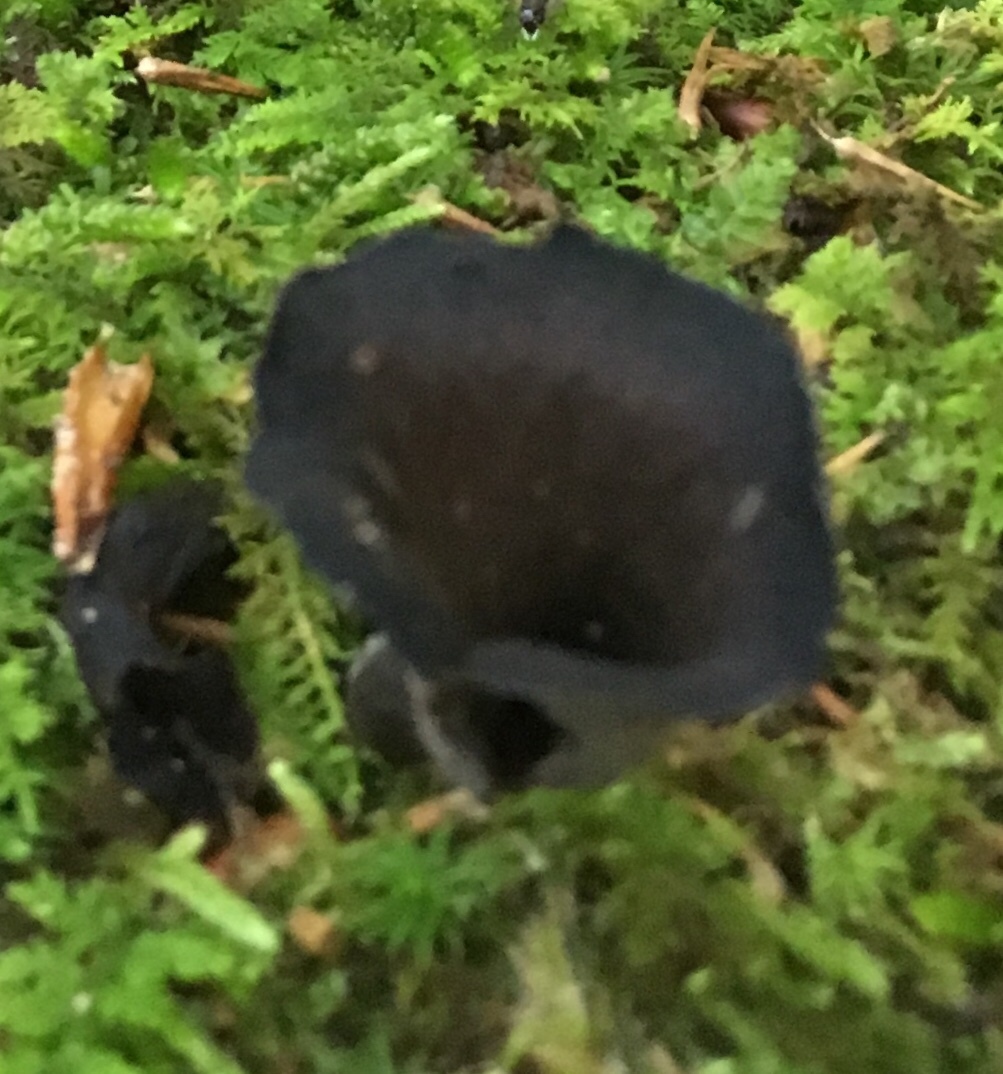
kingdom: Fungi
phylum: Basidiomycota
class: Agaricomycetes
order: Cantharellales
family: Hydnaceae
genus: Craterellus
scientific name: Craterellus cornucopioides
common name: Horn of plenty
